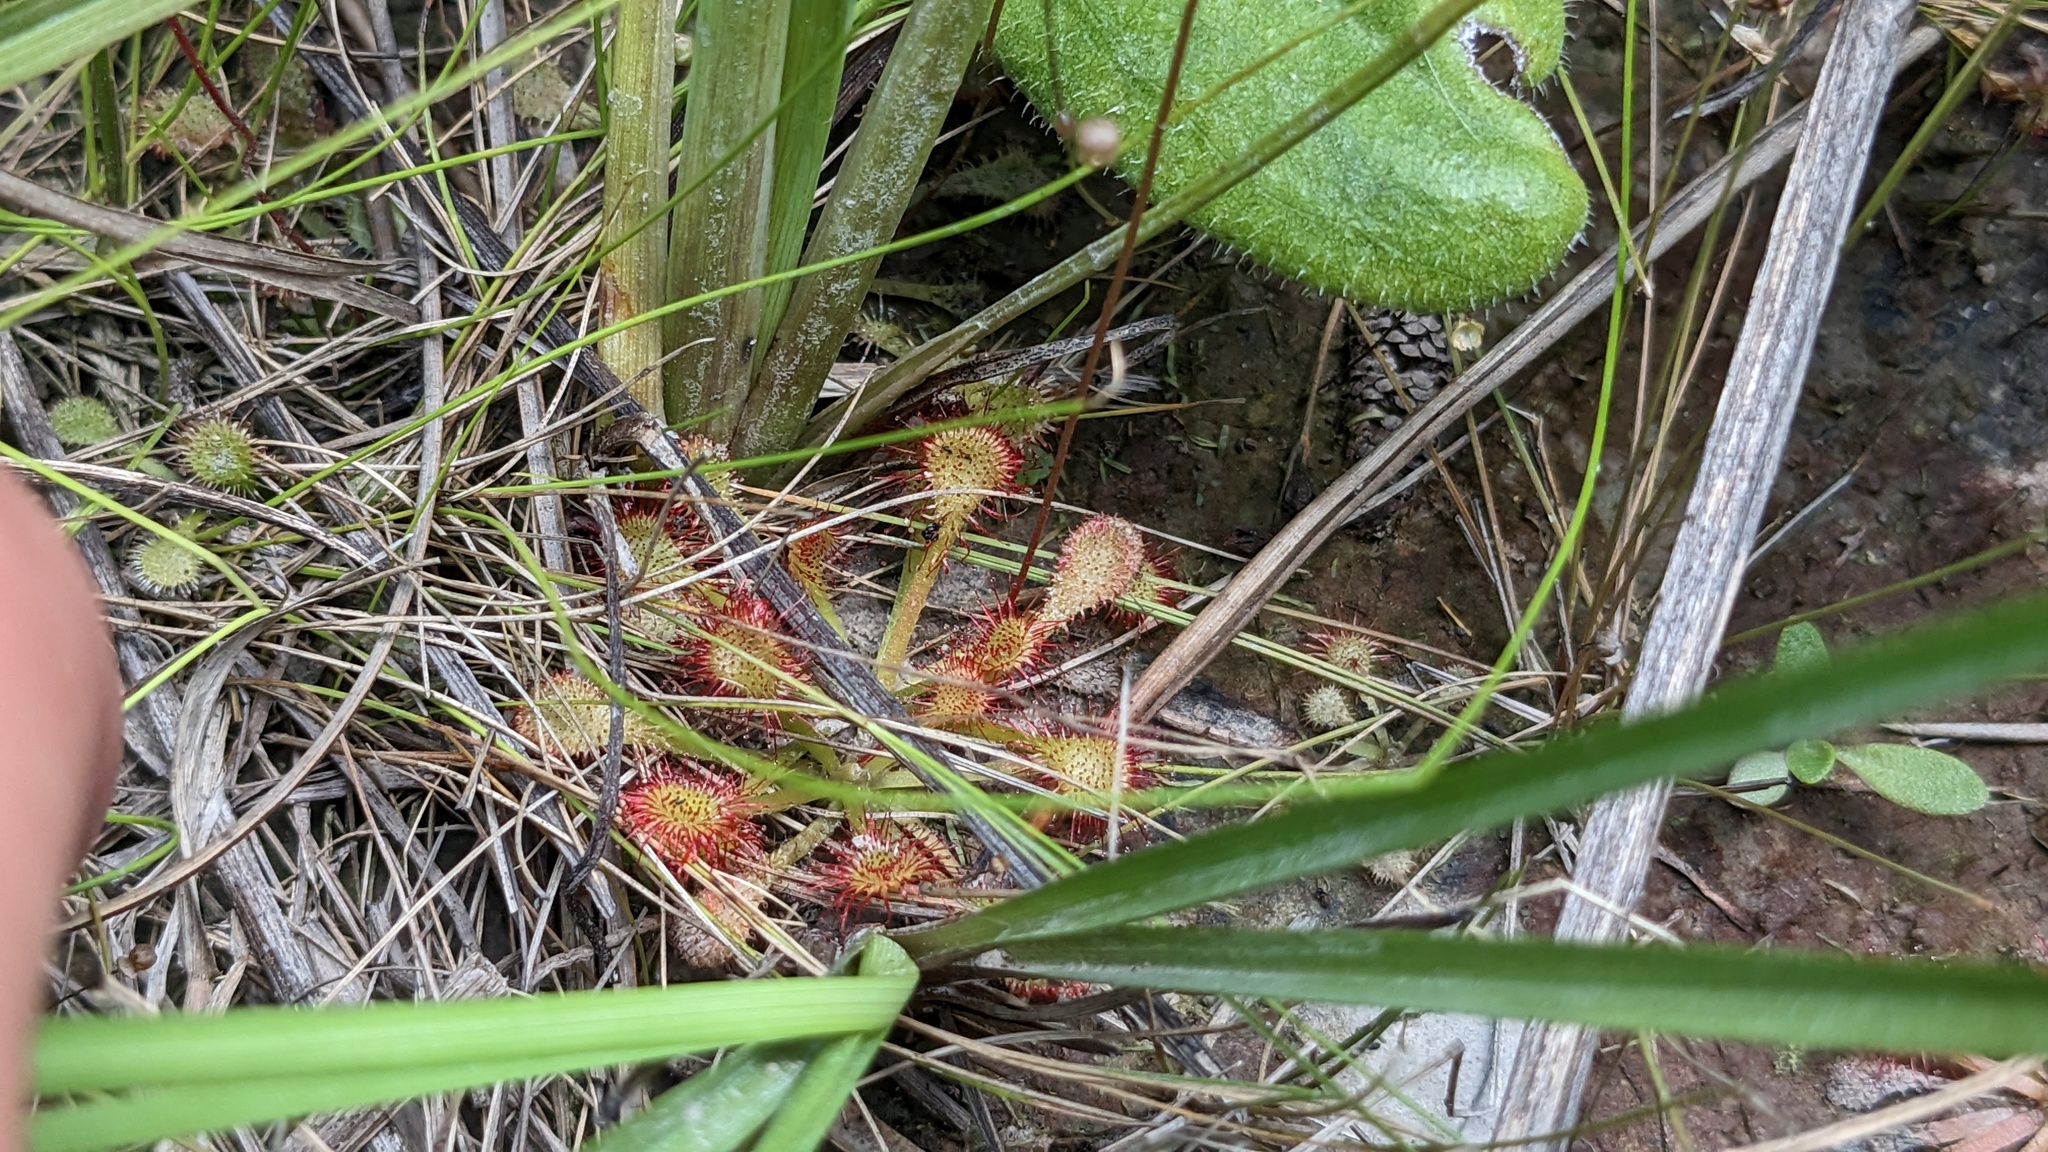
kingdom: Plantae
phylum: Tracheophyta
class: Magnoliopsida
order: Caryophyllales
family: Droseraceae
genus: Drosera
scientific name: Drosera capillaris
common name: Pink sundew
